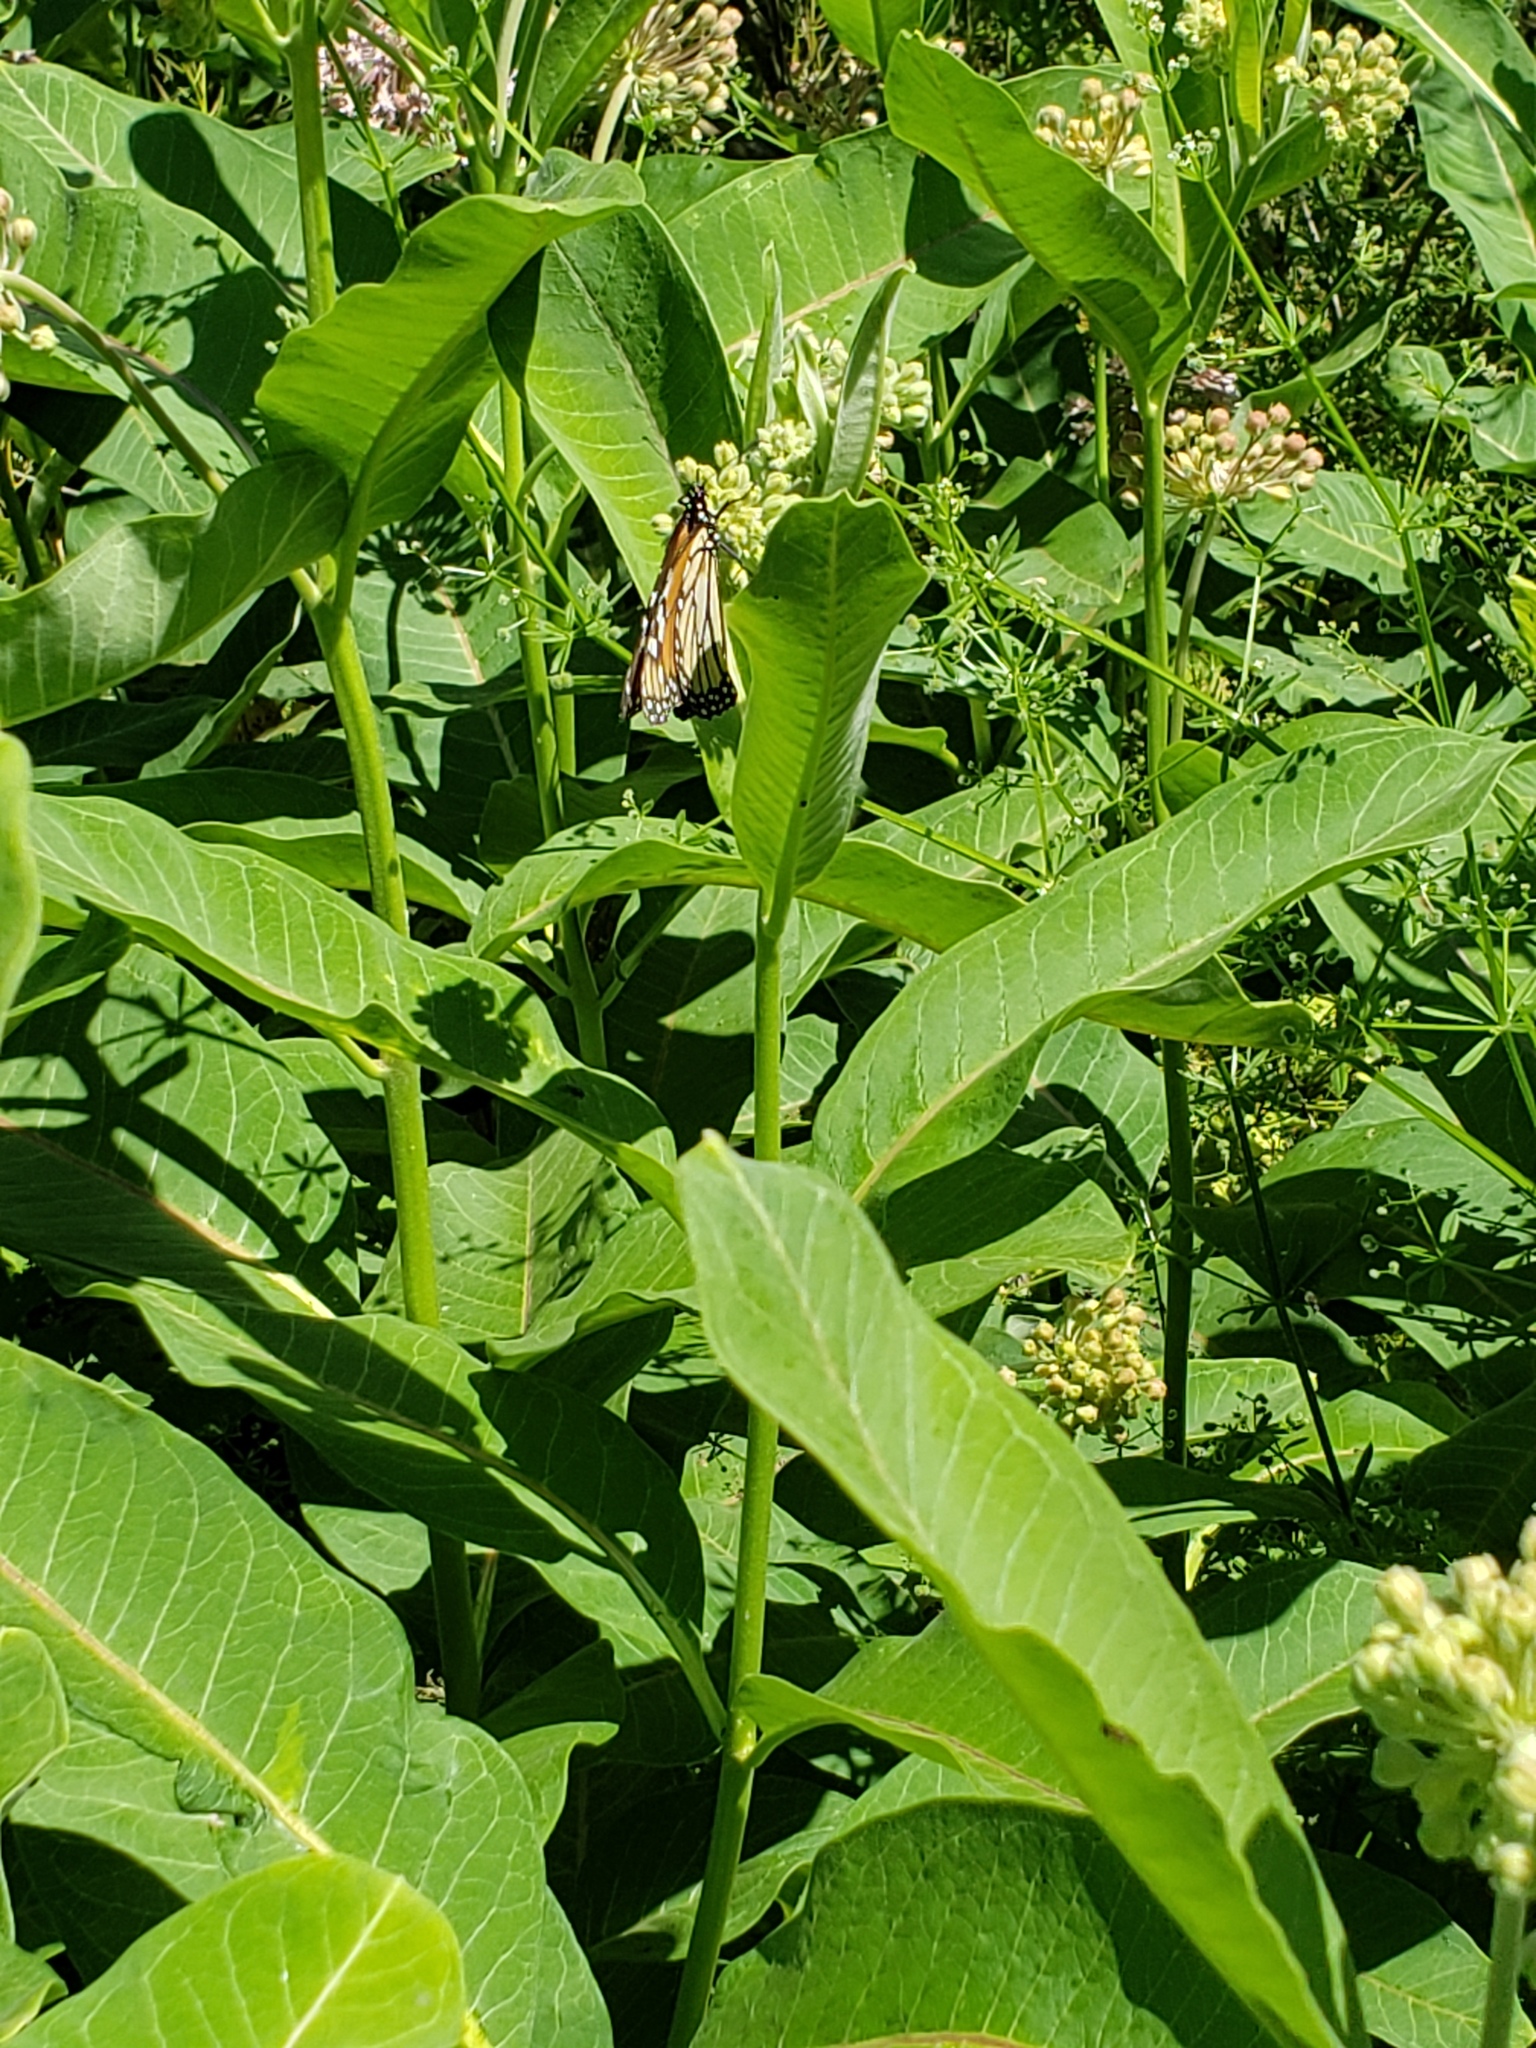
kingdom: Animalia
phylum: Arthropoda
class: Insecta
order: Lepidoptera
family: Nymphalidae
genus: Danaus
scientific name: Danaus plexippus
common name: Monarch
